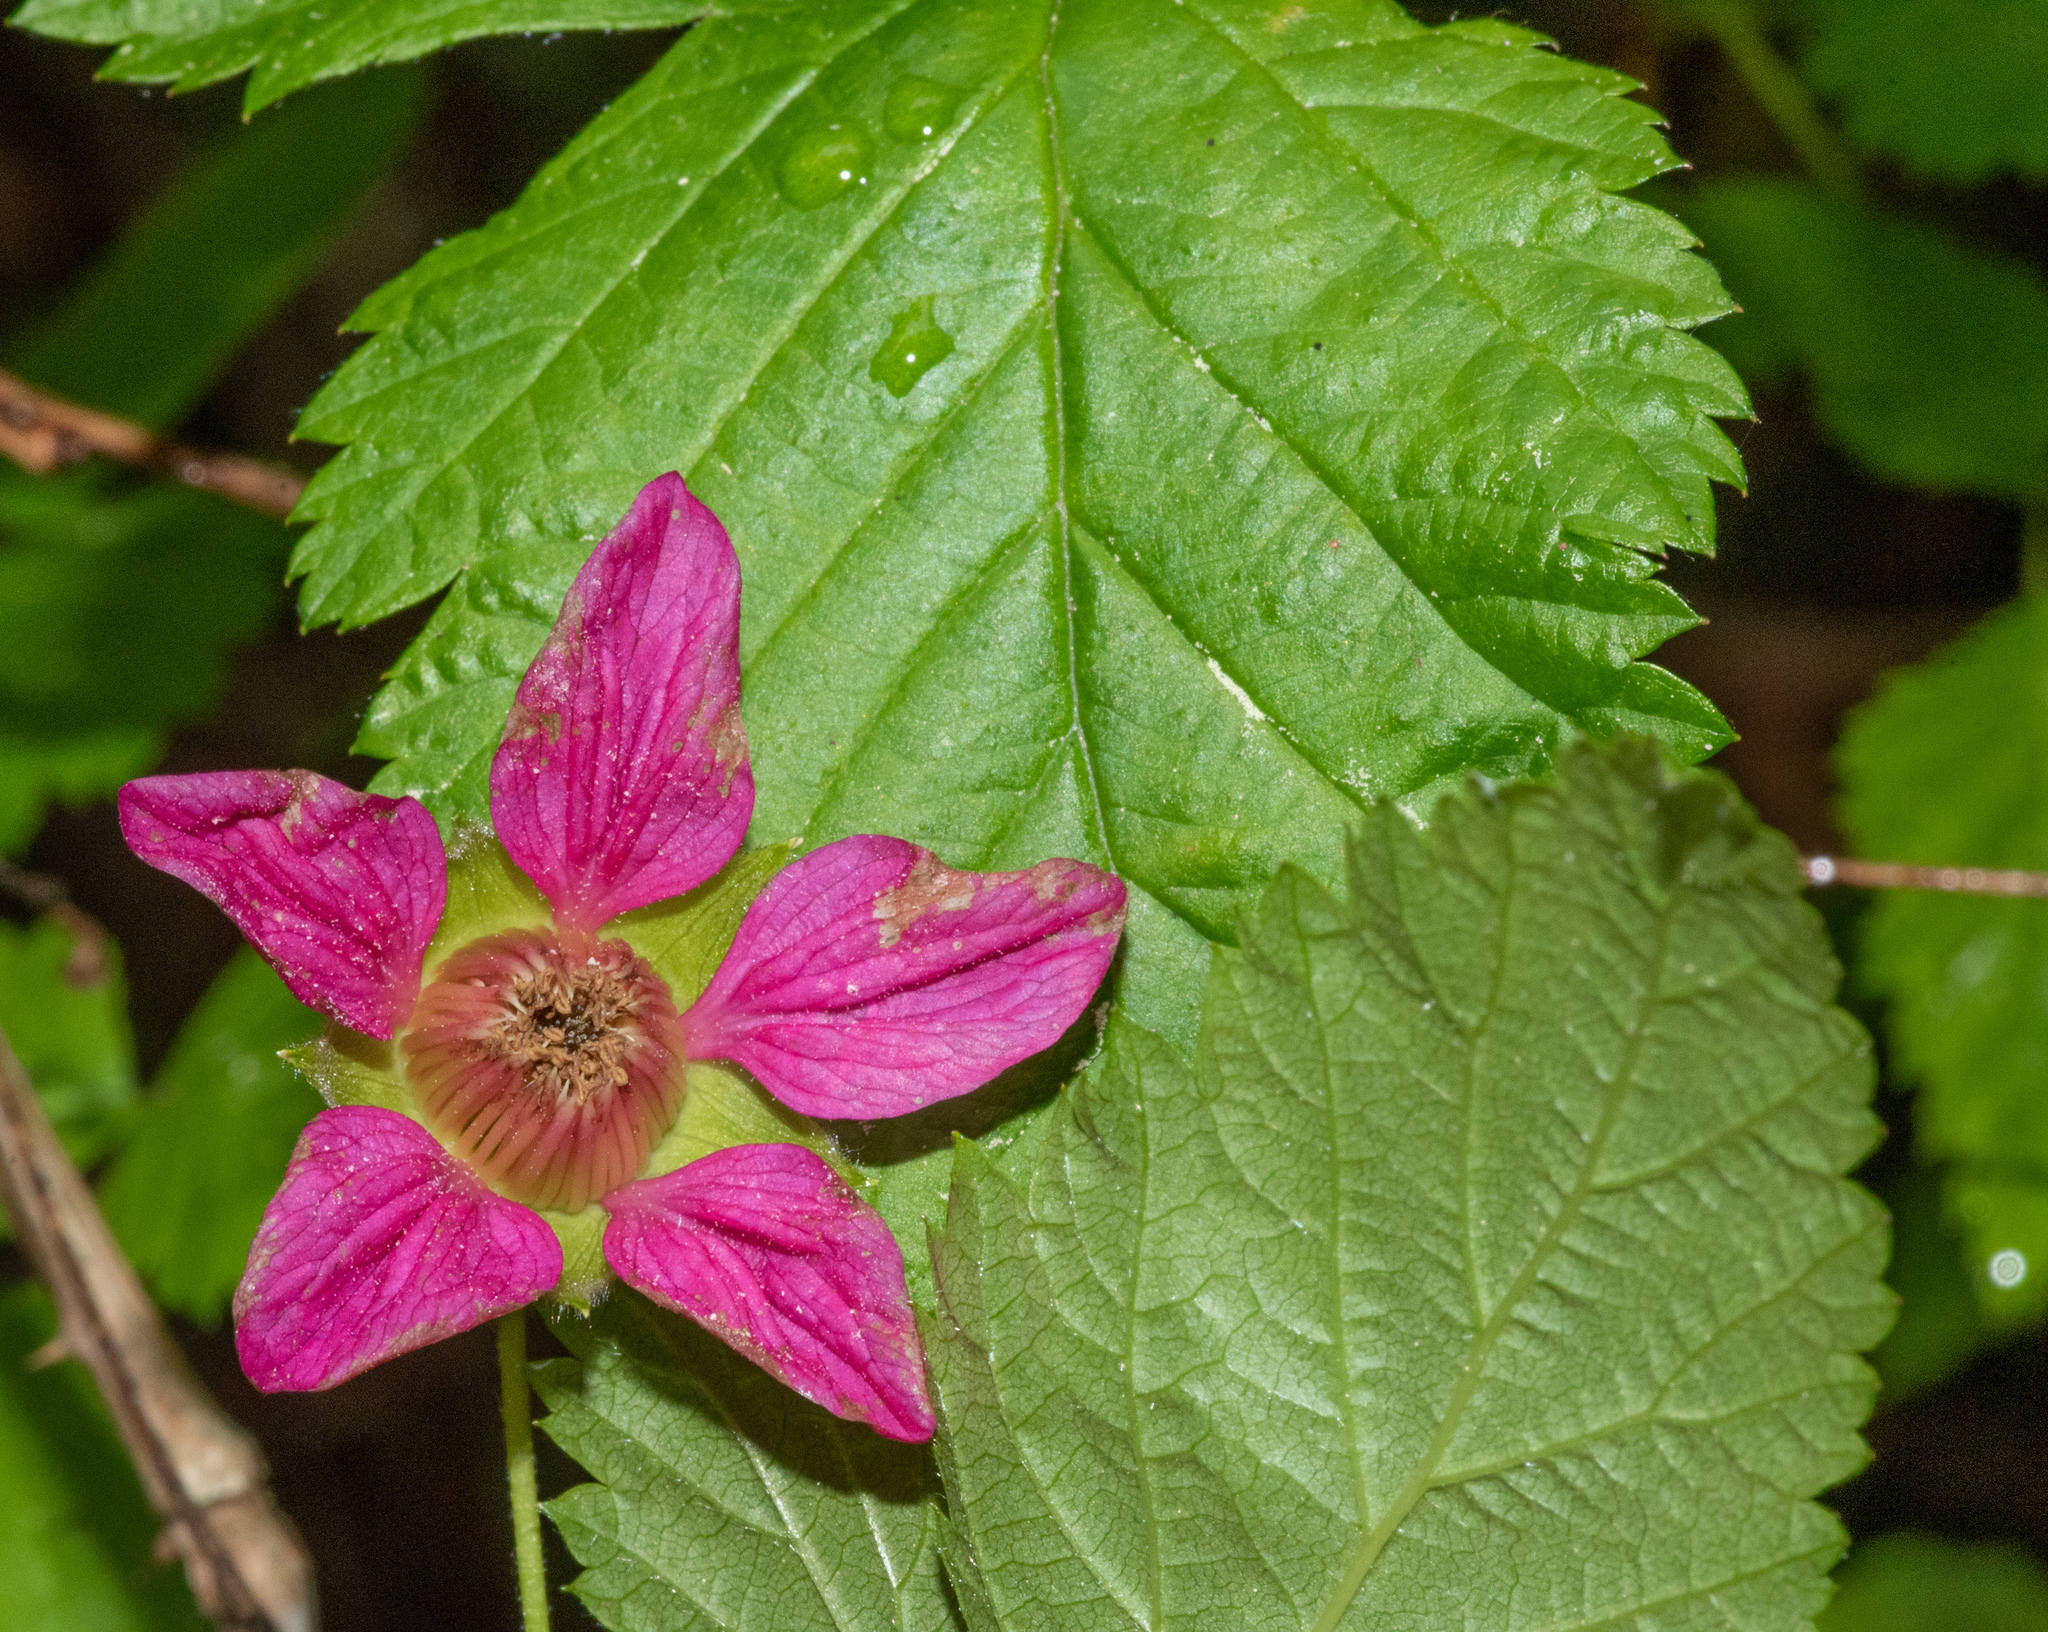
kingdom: Plantae
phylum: Tracheophyta
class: Magnoliopsida
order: Rosales
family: Rosaceae
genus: Rubus
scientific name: Rubus spectabilis
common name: Salmonberry
